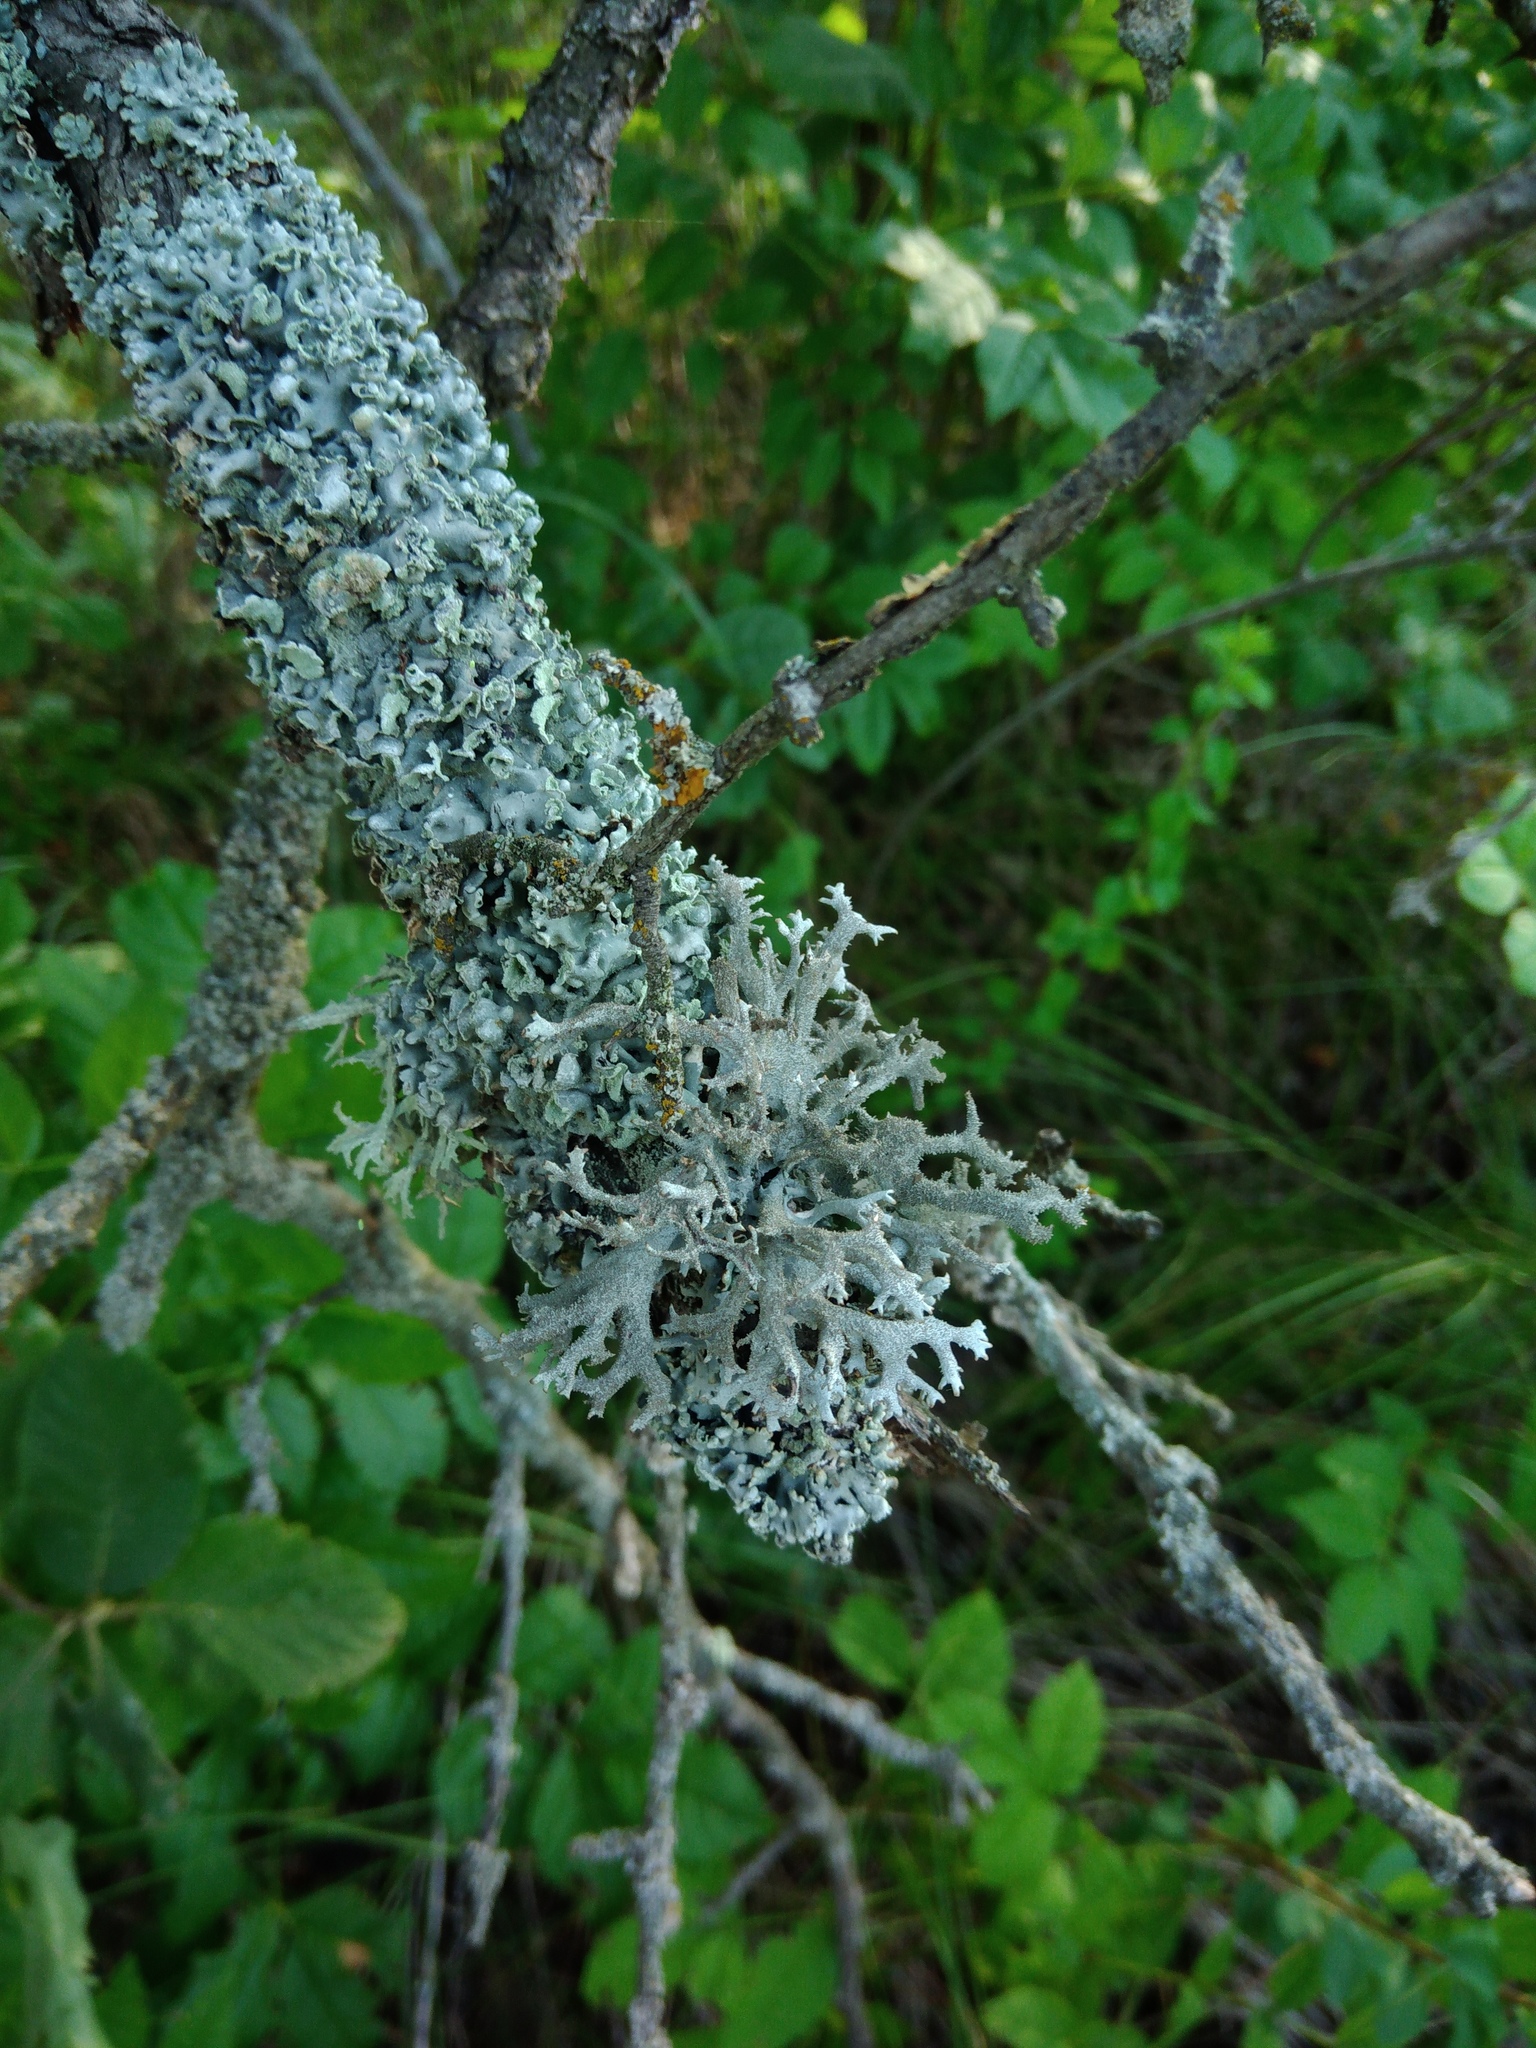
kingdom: Fungi
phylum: Ascomycota
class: Lecanoromycetes
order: Lecanorales
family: Parmeliaceae
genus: Pseudevernia
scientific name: Pseudevernia furfuracea
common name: Tree moss
